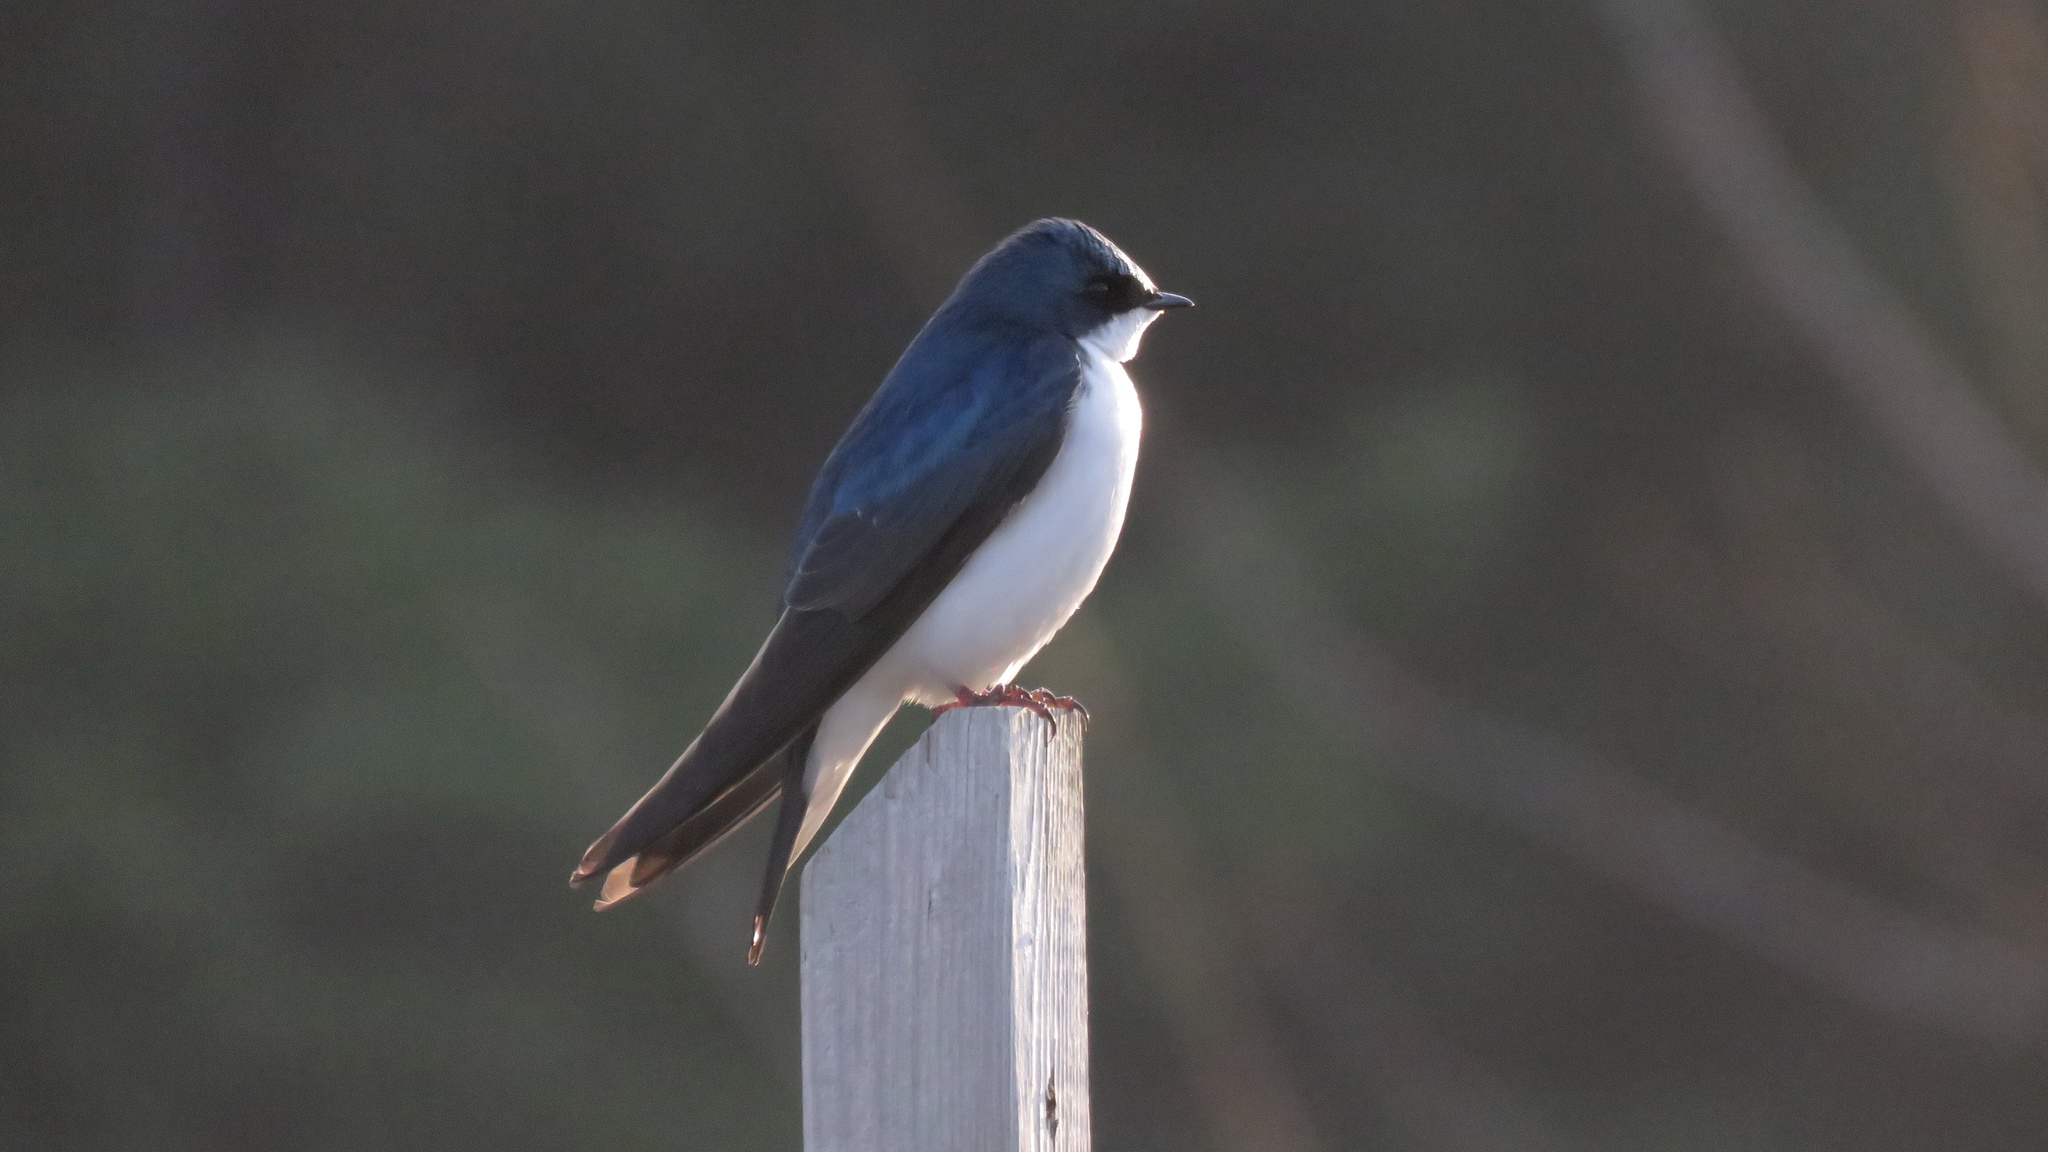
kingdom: Animalia
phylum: Chordata
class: Aves
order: Passeriformes
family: Hirundinidae
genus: Tachycineta
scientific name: Tachycineta bicolor
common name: Tree swallow
